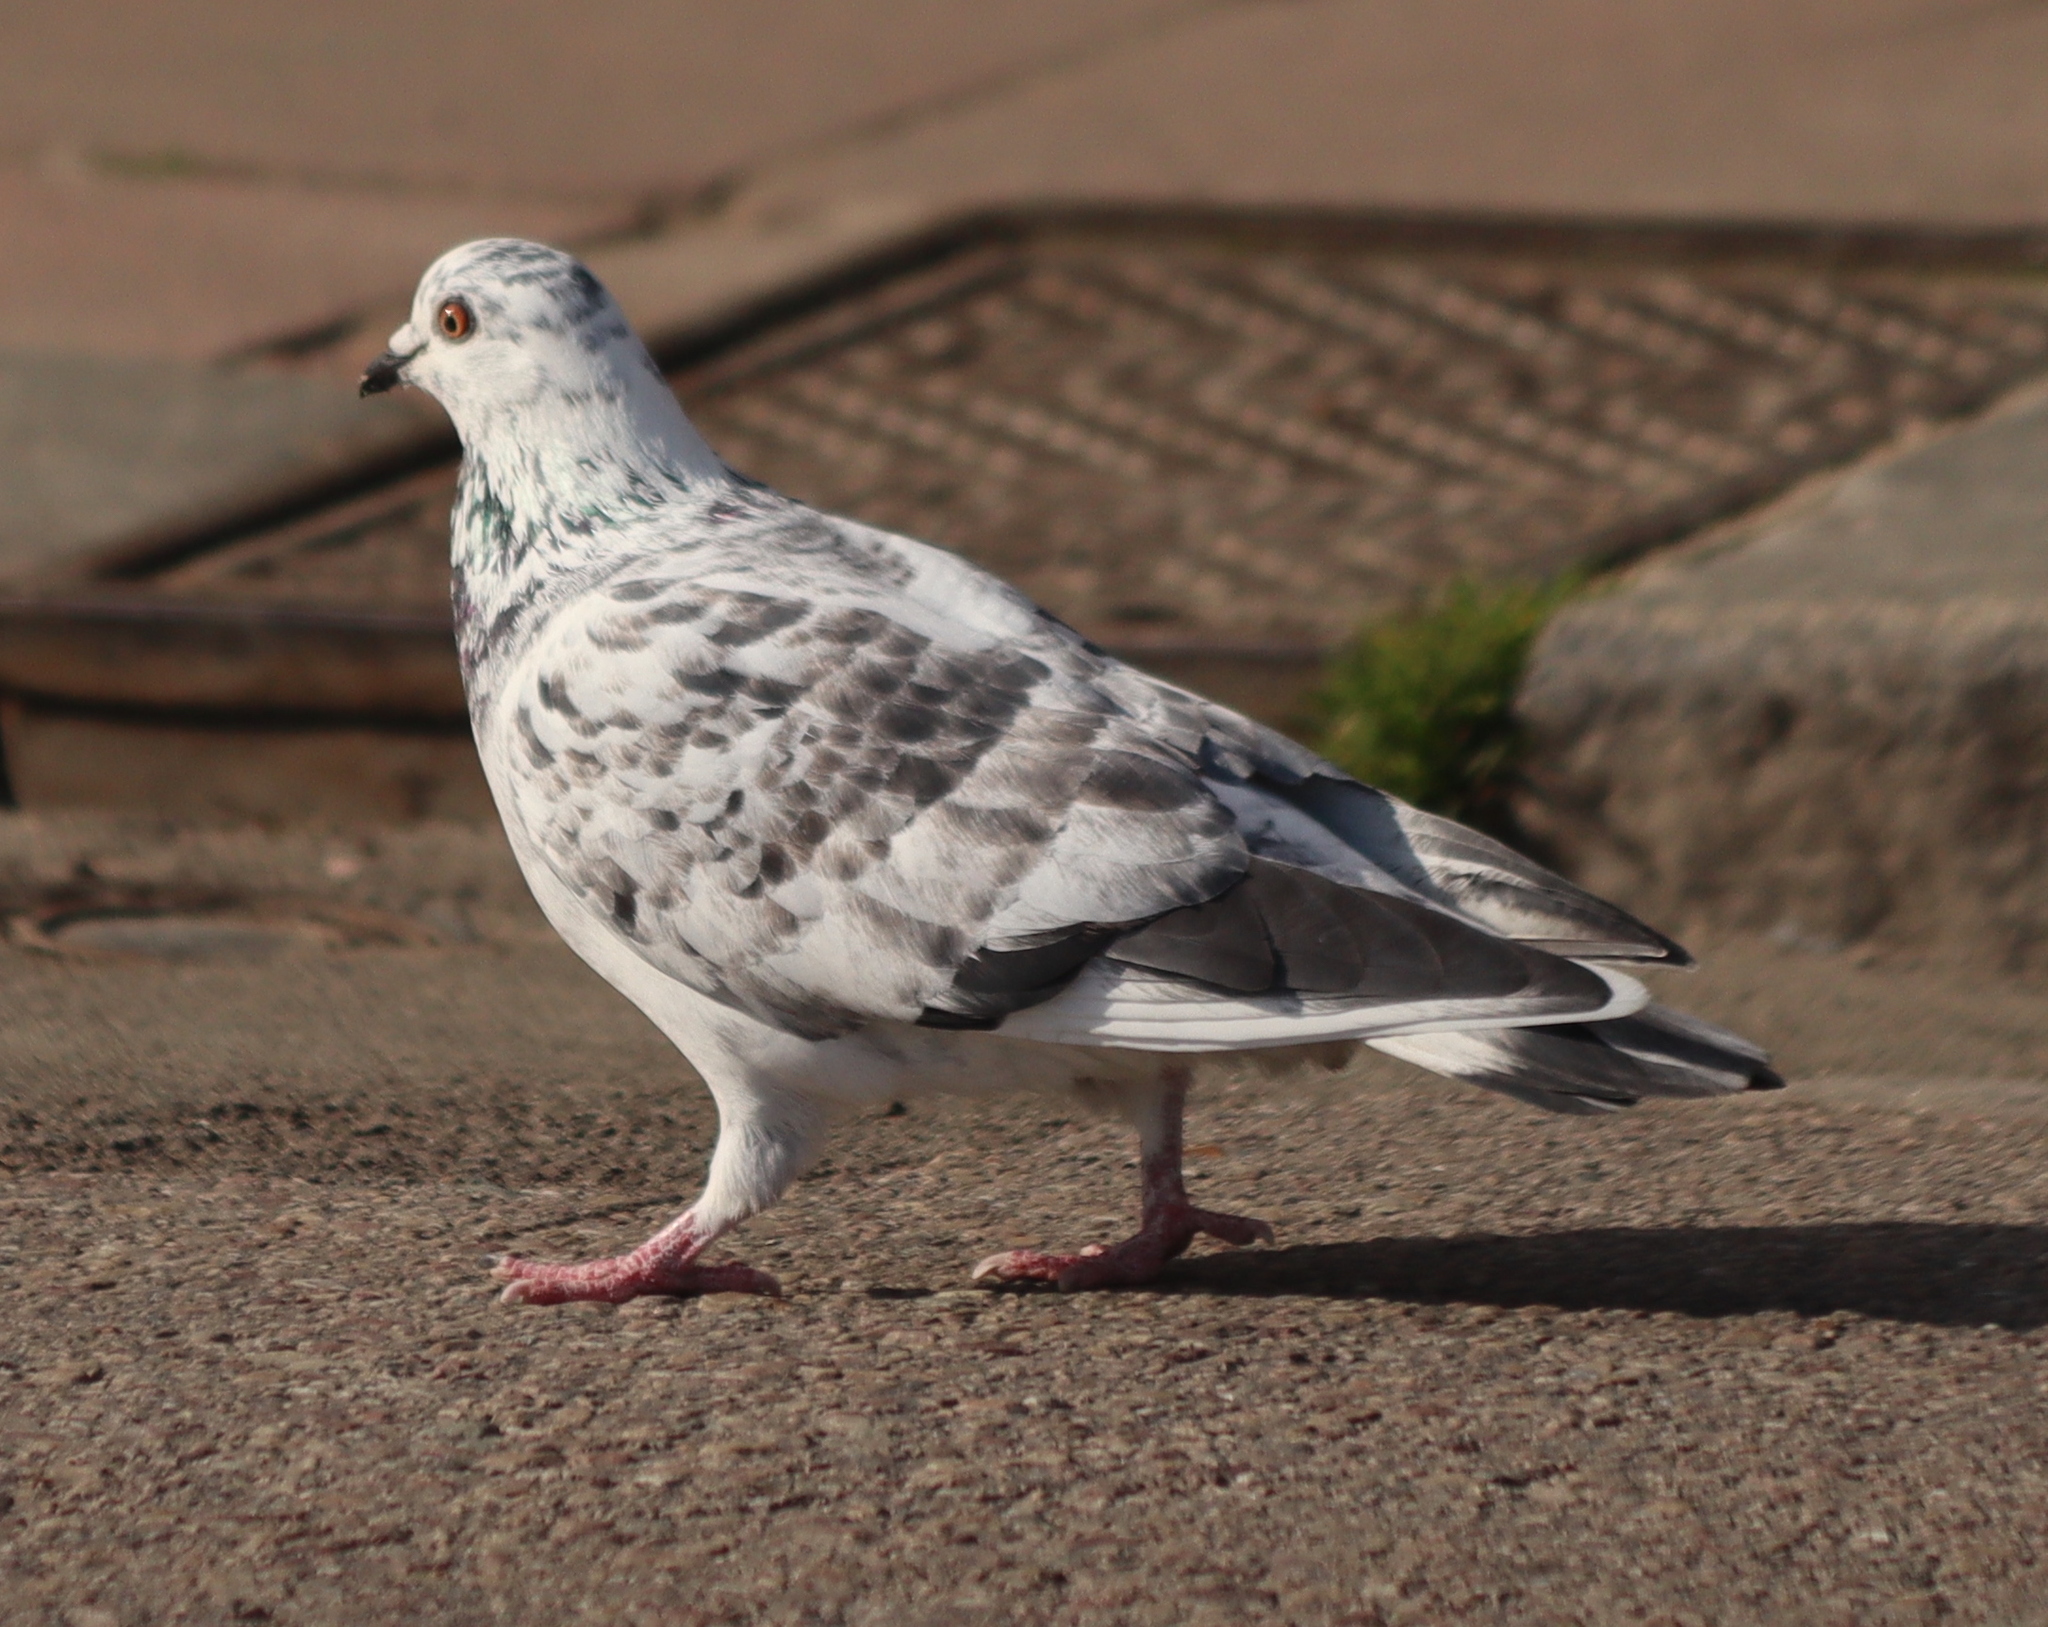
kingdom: Animalia
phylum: Chordata
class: Aves
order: Columbiformes
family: Columbidae
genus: Columba
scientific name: Columba livia
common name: Rock pigeon
